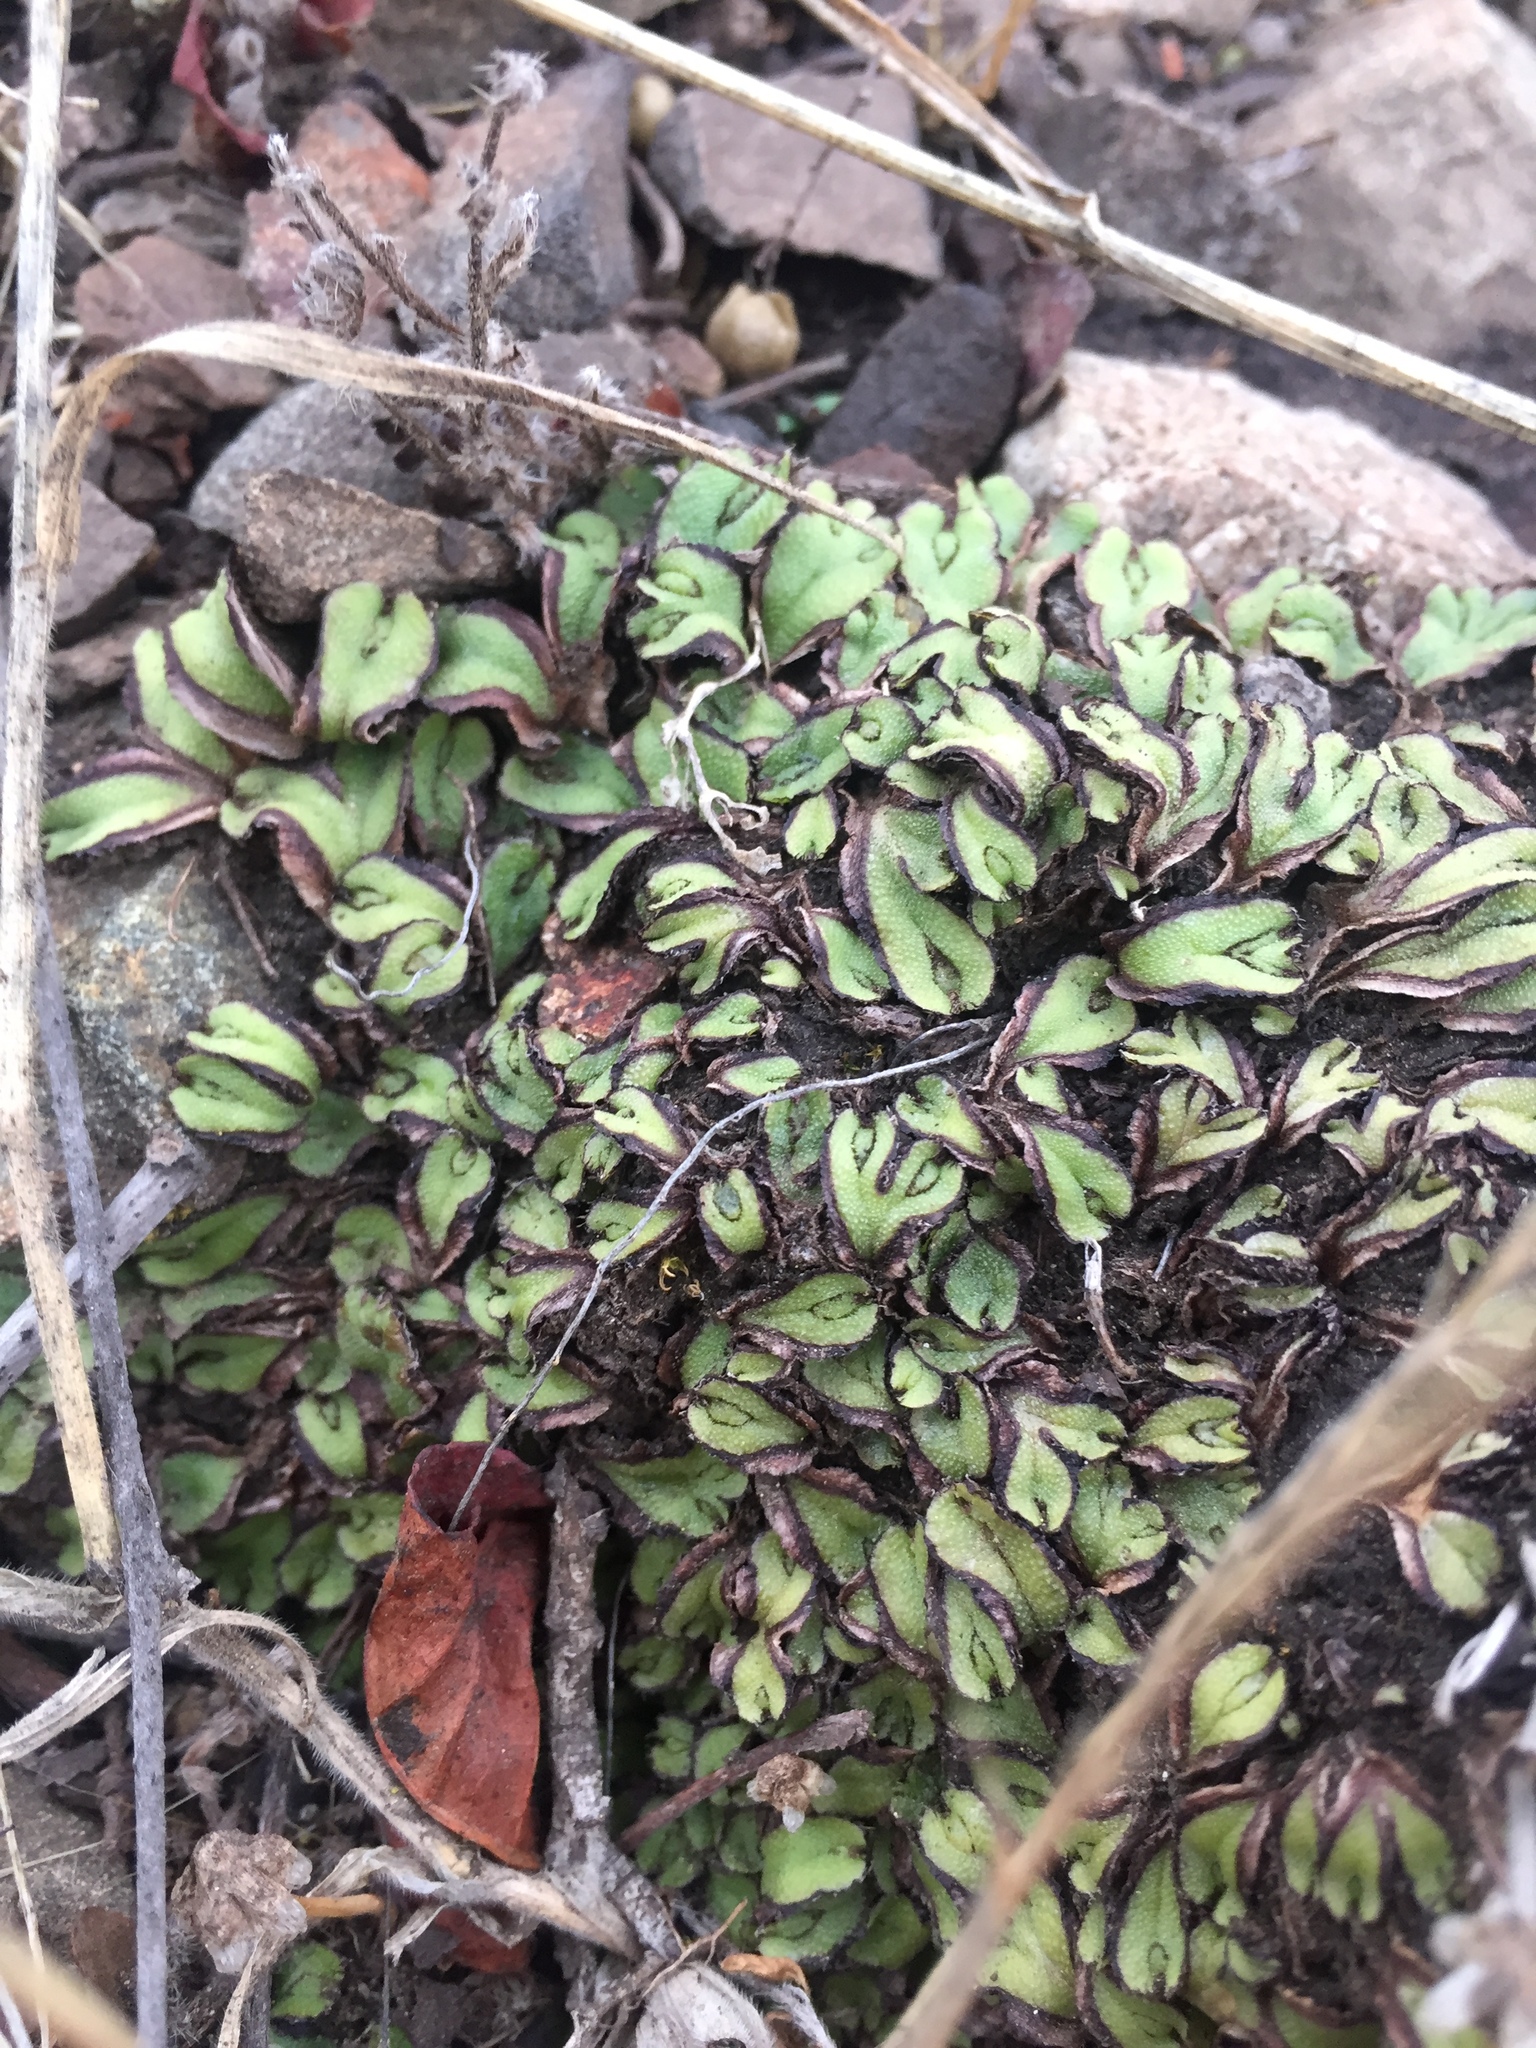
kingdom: Plantae
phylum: Marchantiophyta
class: Marchantiopsida
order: Marchantiales
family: Aytoniaceae
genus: Asterella
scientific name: Asterella californica
